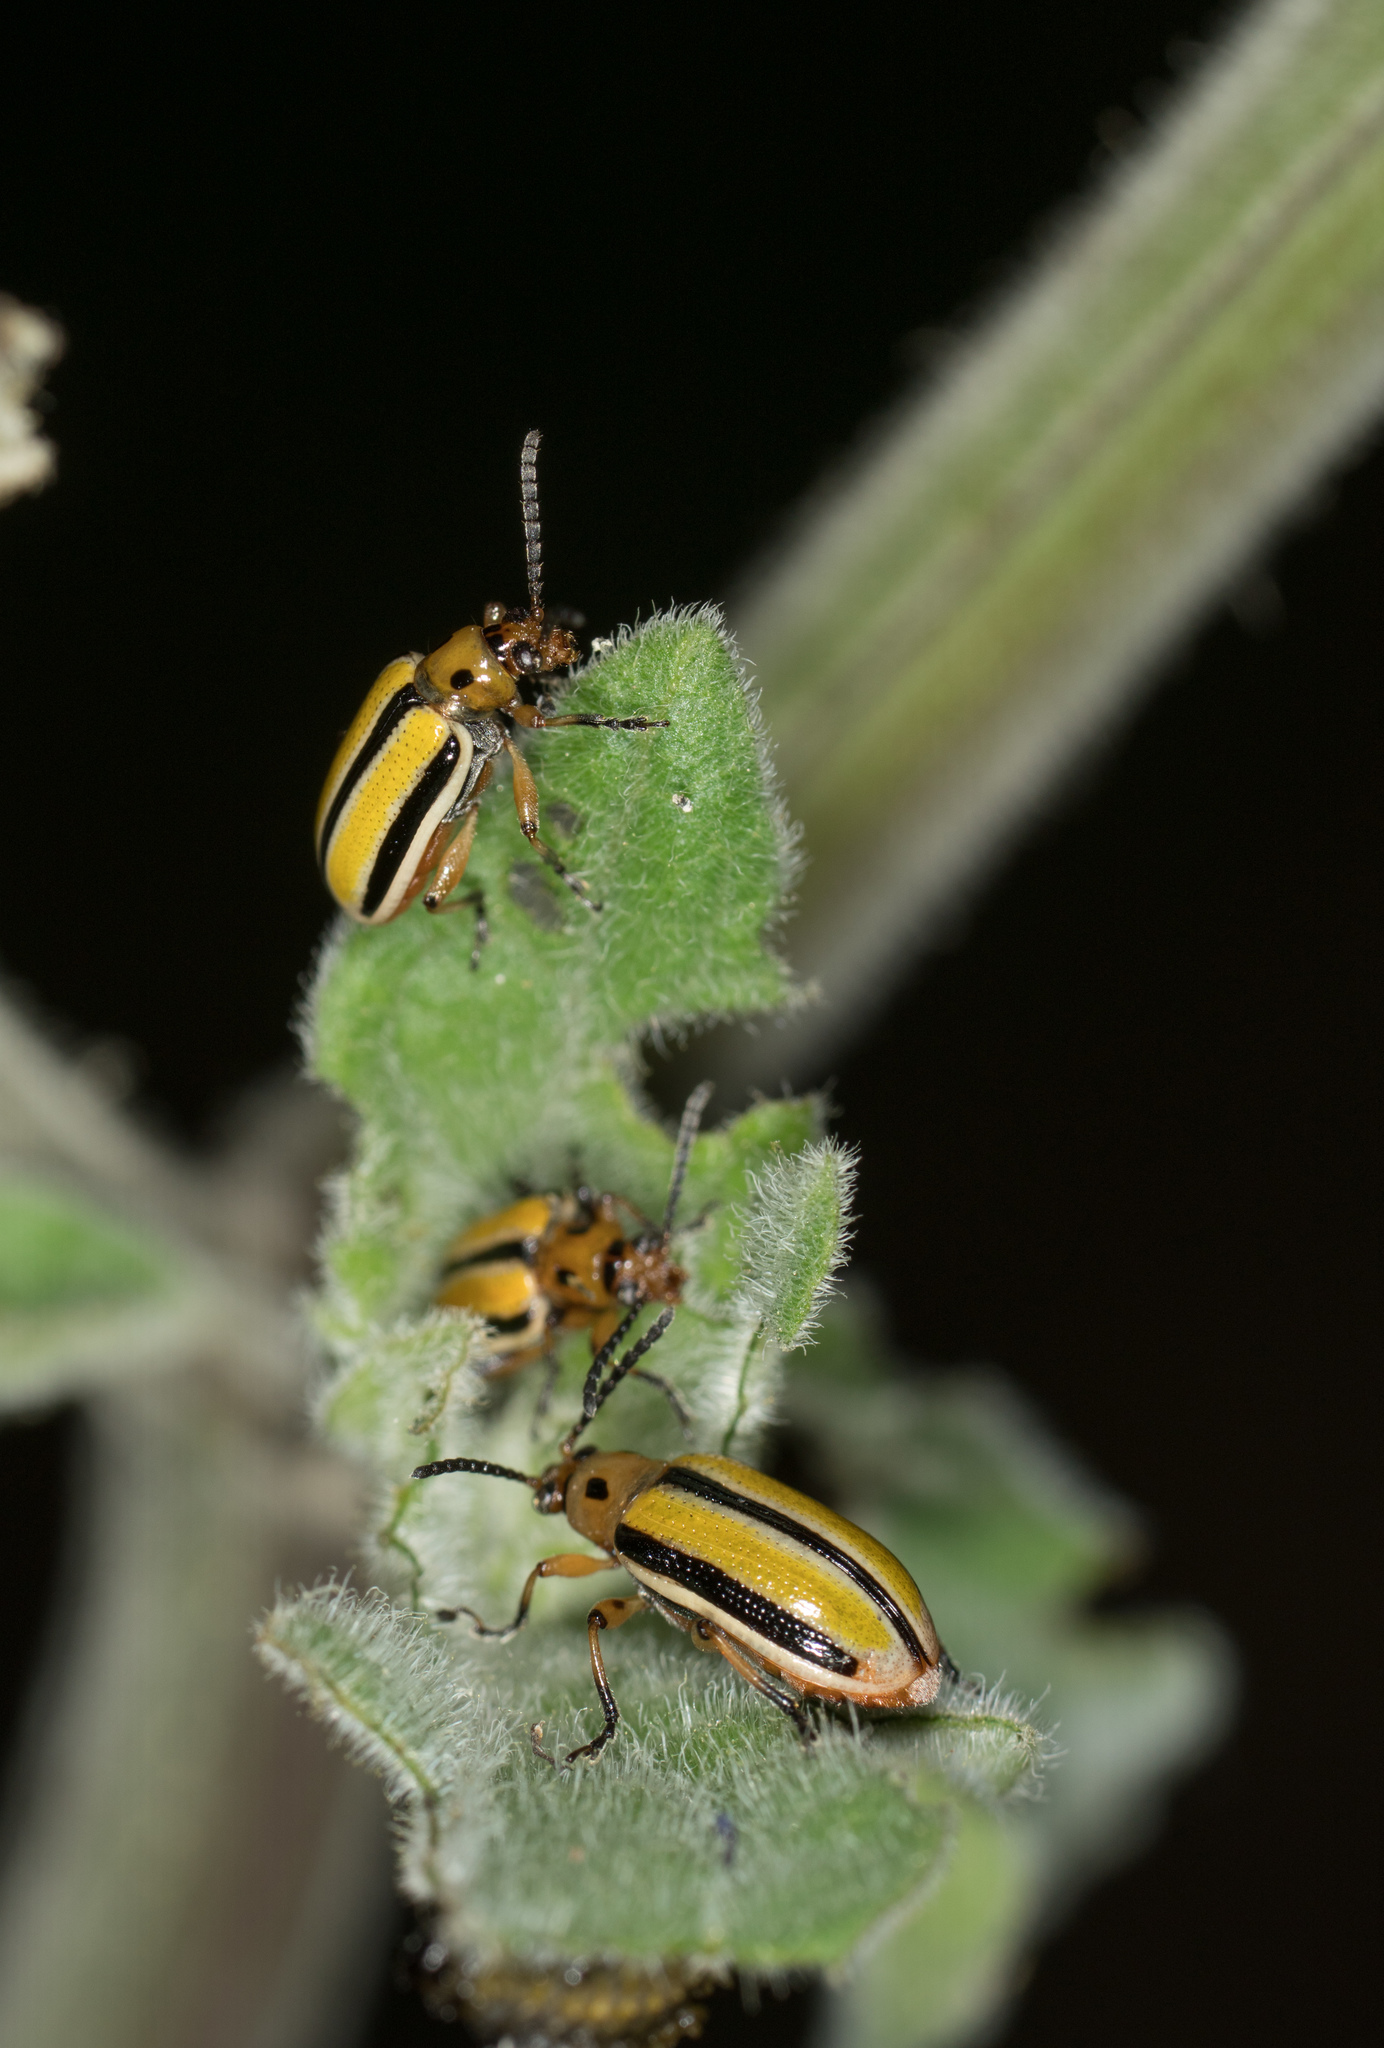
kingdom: Animalia
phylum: Arthropoda
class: Insecta
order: Coleoptera
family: Chrysomelidae
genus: Lema
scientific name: Lema daturaphila
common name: Leaf beetle
